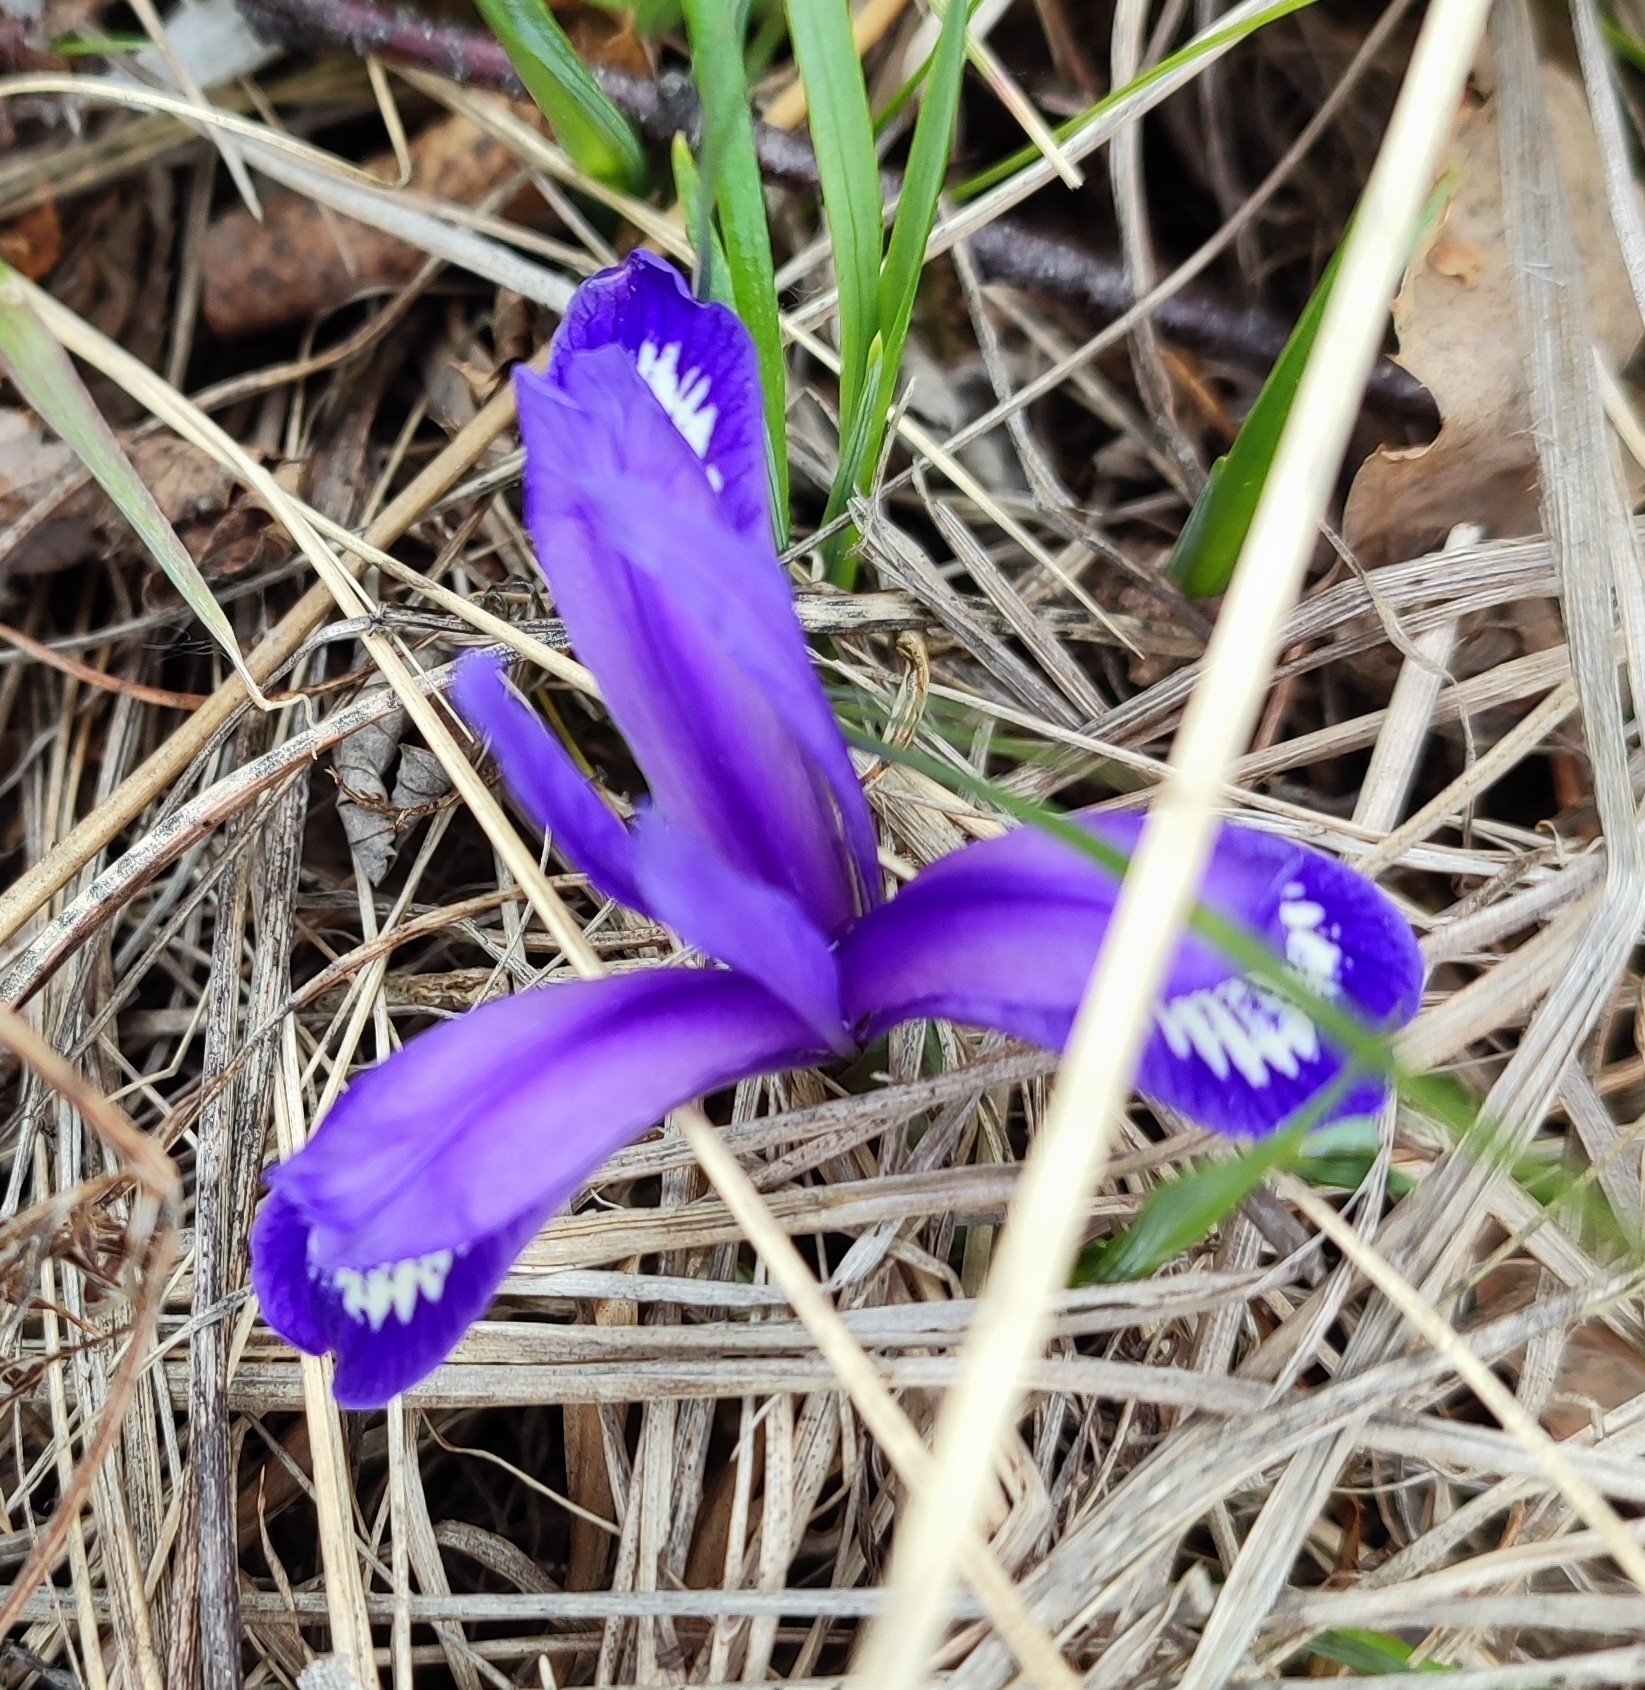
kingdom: Plantae
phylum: Tracheophyta
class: Liliopsida
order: Asparagales
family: Iridaceae
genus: Iris
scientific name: Iris ruthenica
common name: Purple-bract iris
